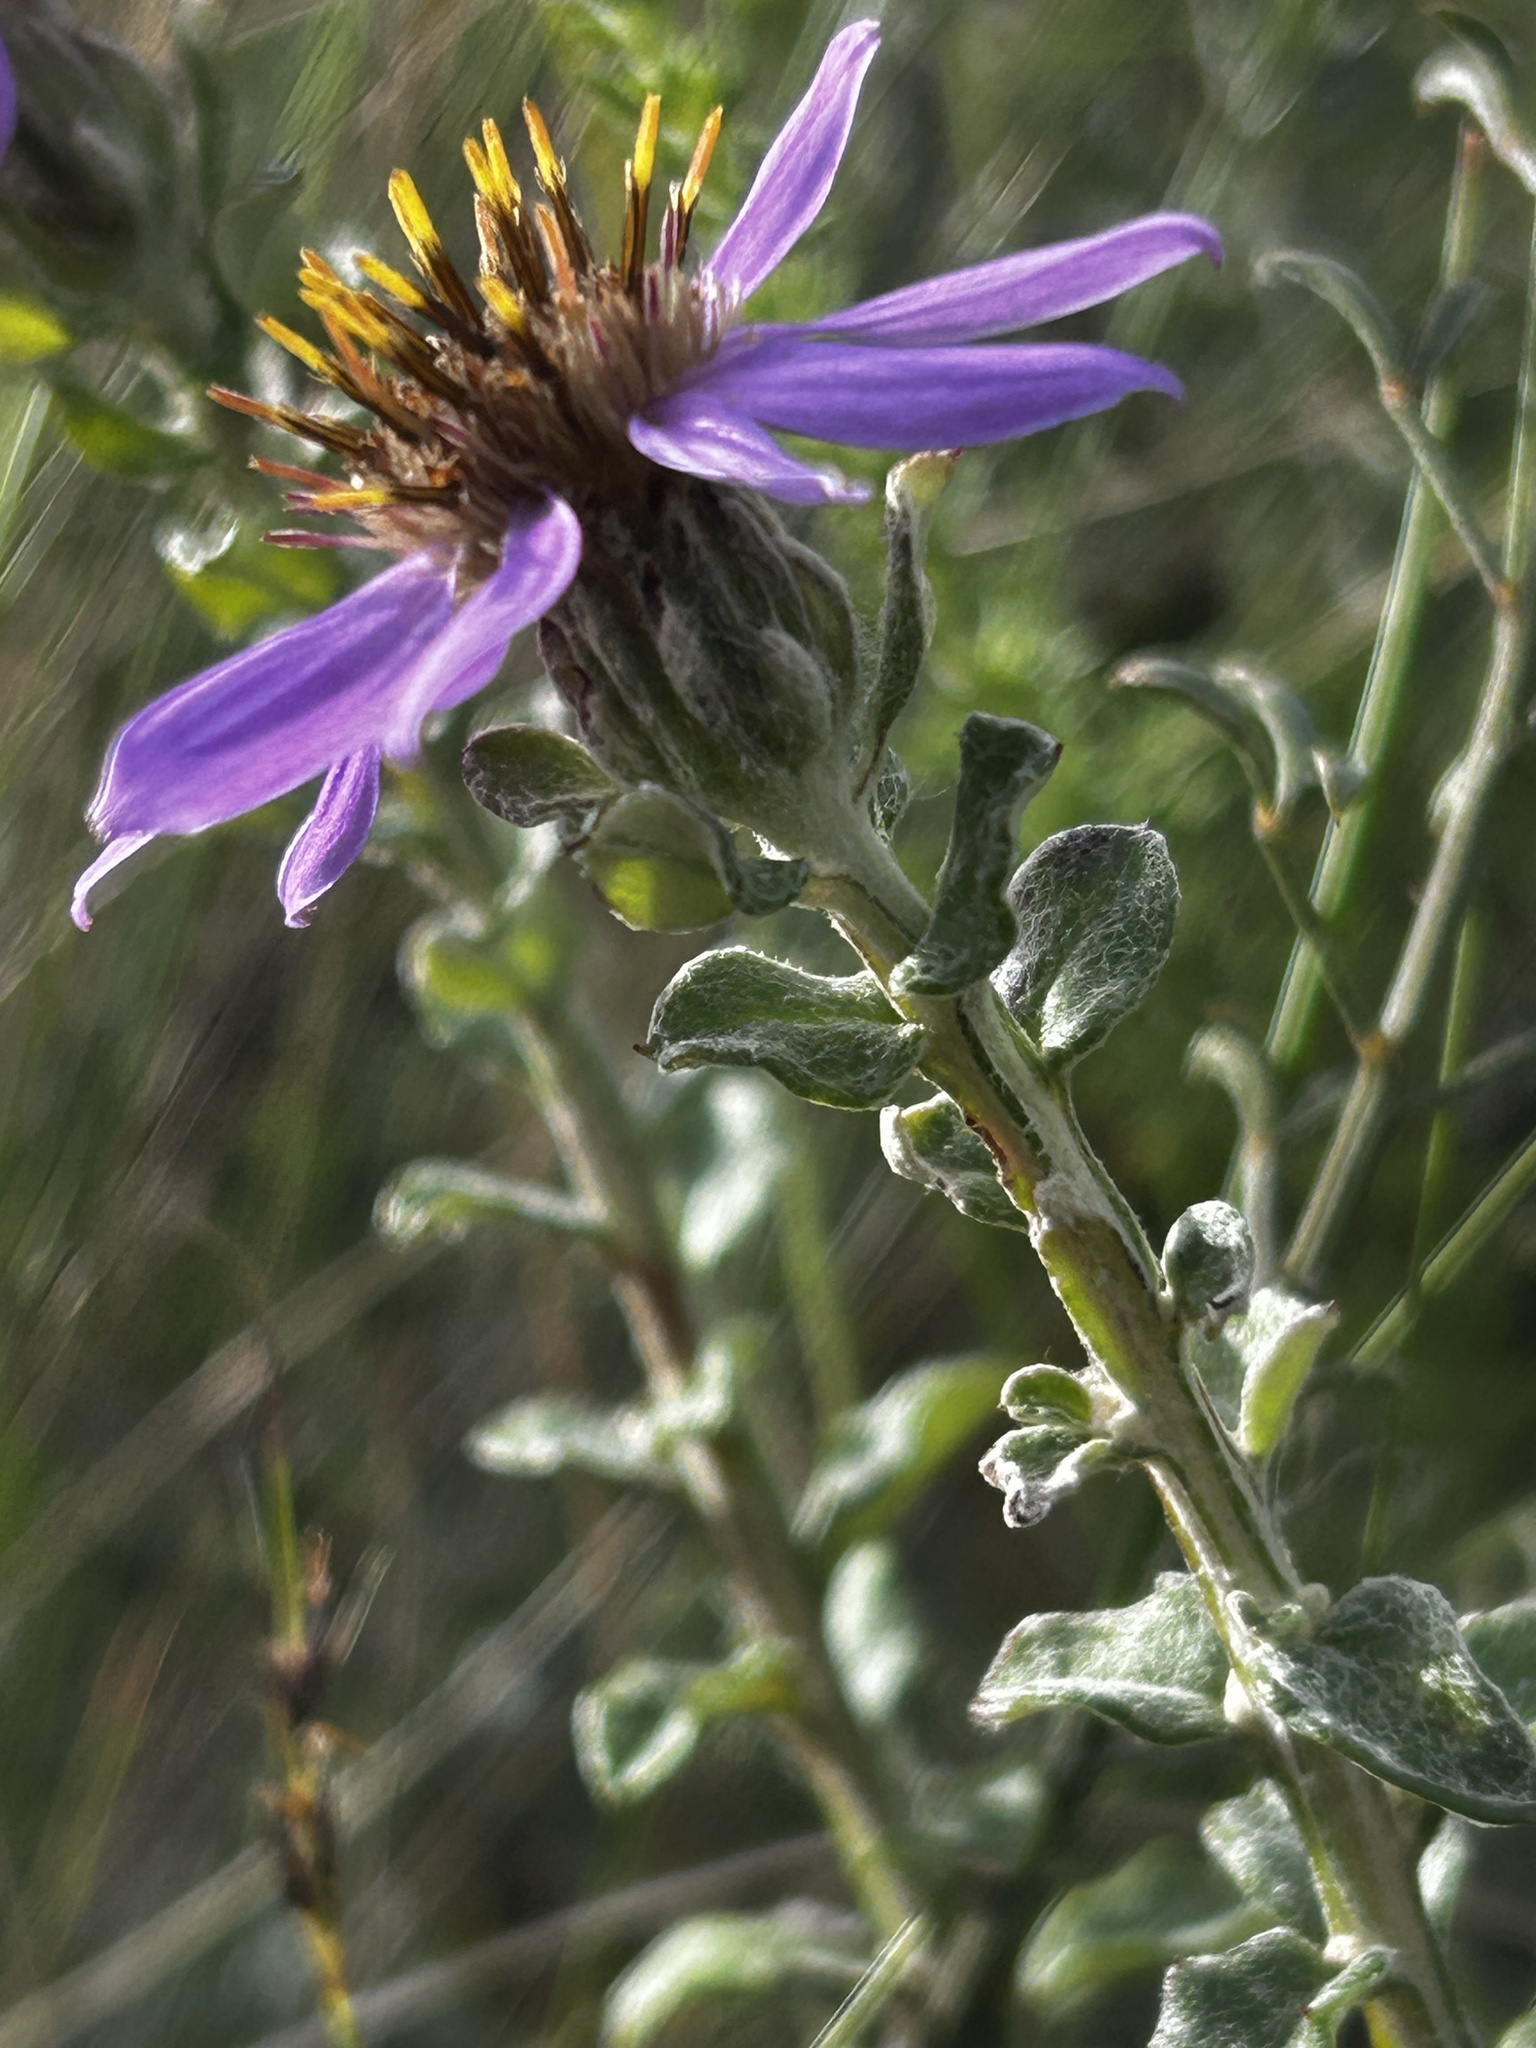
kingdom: Plantae
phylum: Tracheophyta
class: Magnoliopsida
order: Asterales
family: Asteraceae
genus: Printzia
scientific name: Printzia polifolia
